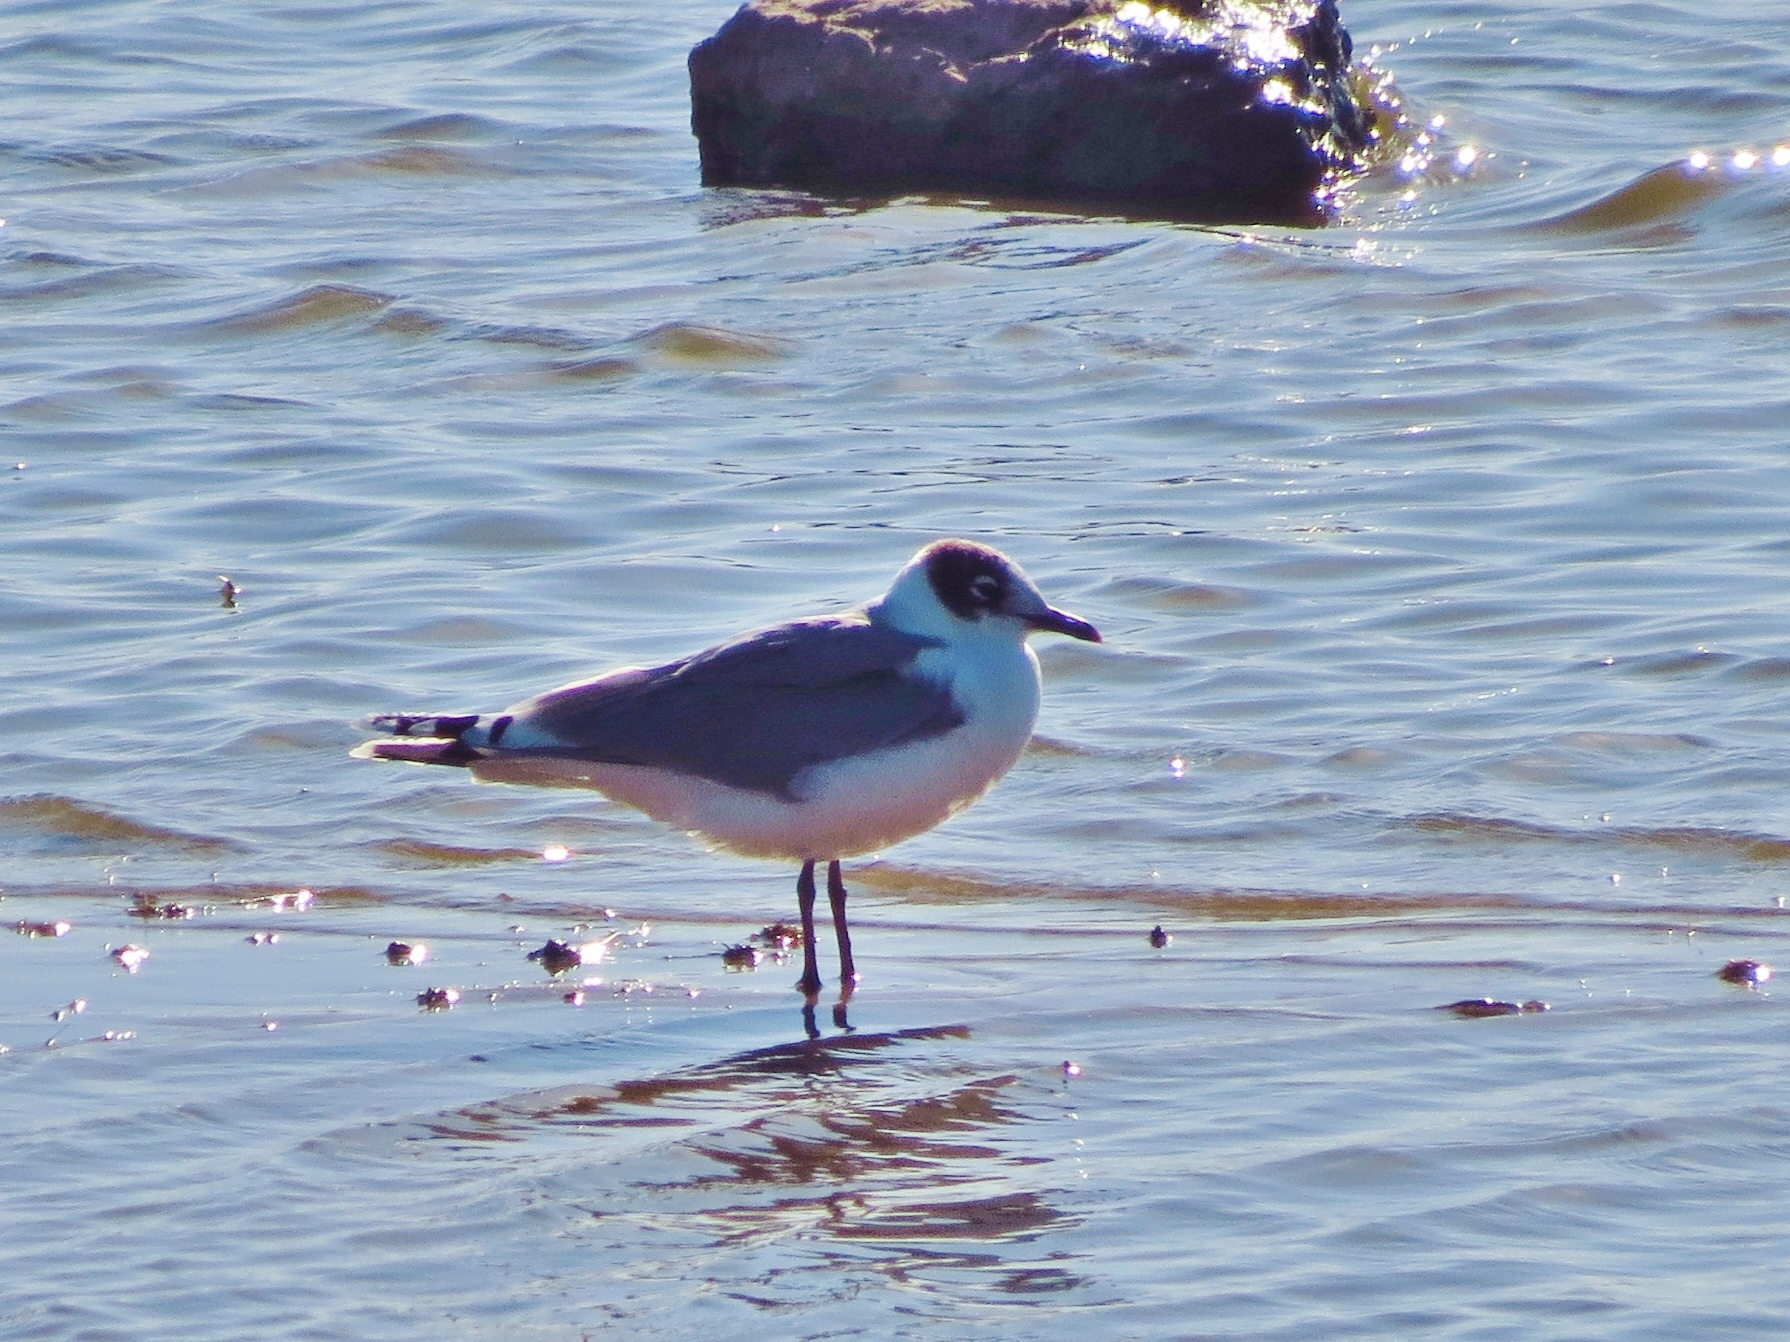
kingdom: Animalia
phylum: Chordata
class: Aves
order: Charadriiformes
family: Laridae
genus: Leucophaeus
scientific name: Leucophaeus pipixcan
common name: Franklin's gull
